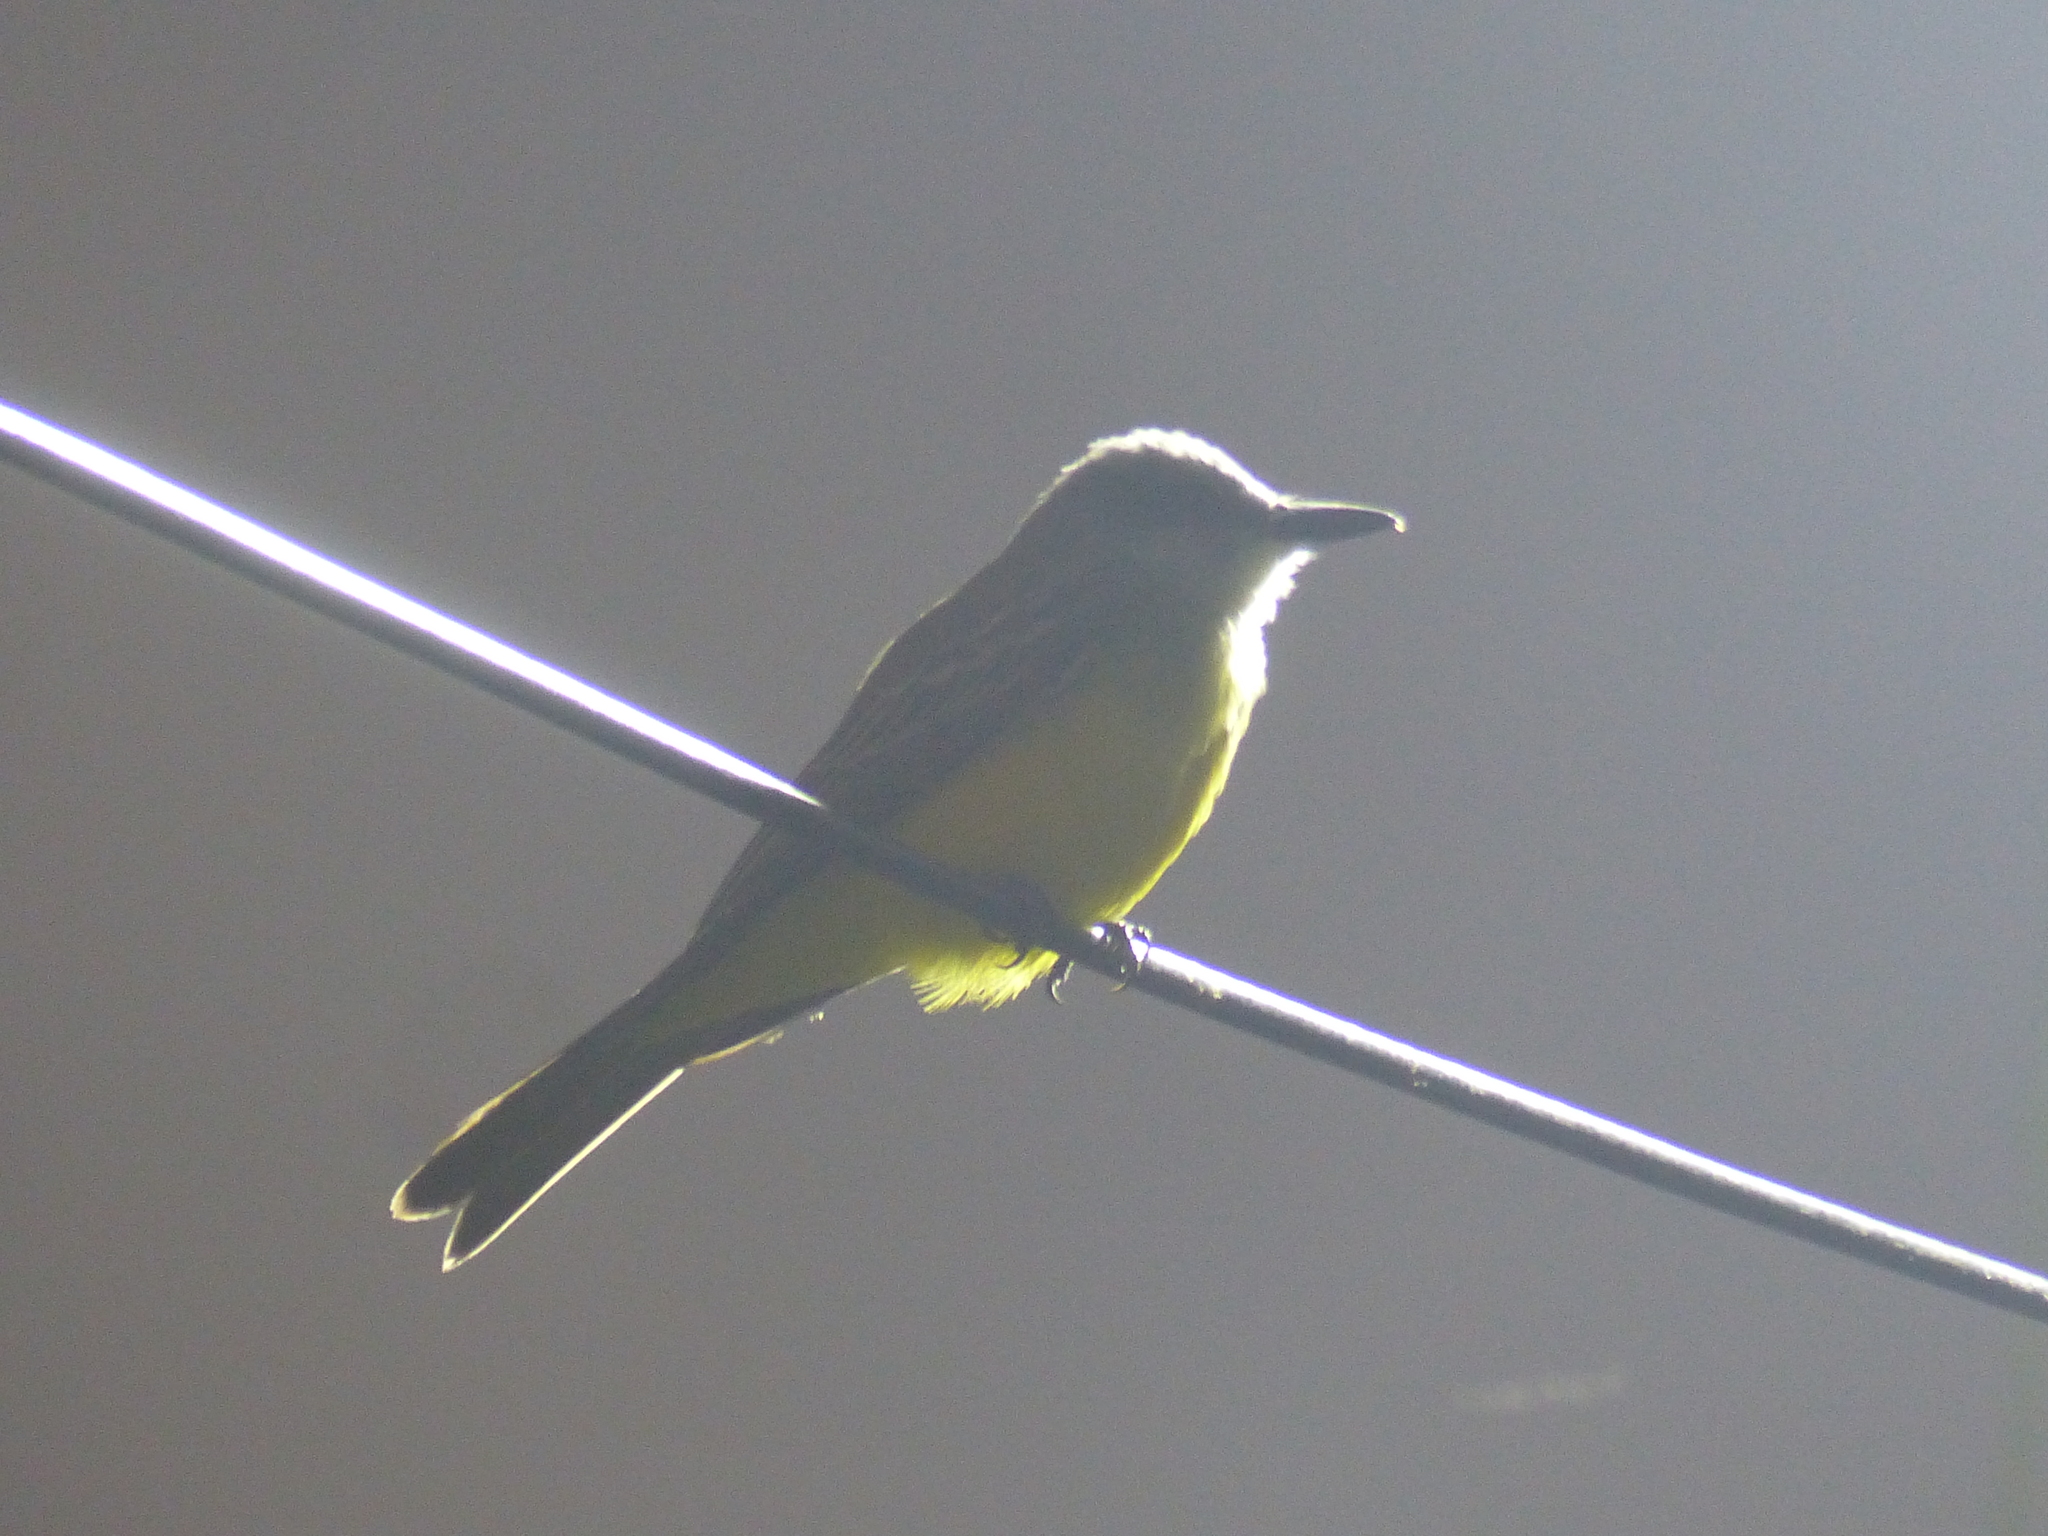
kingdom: Animalia
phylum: Chordata
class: Aves
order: Passeriformes
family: Tyrannidae
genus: Tyrannus
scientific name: Tyrannus melancholicus
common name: Tropical kingbird
